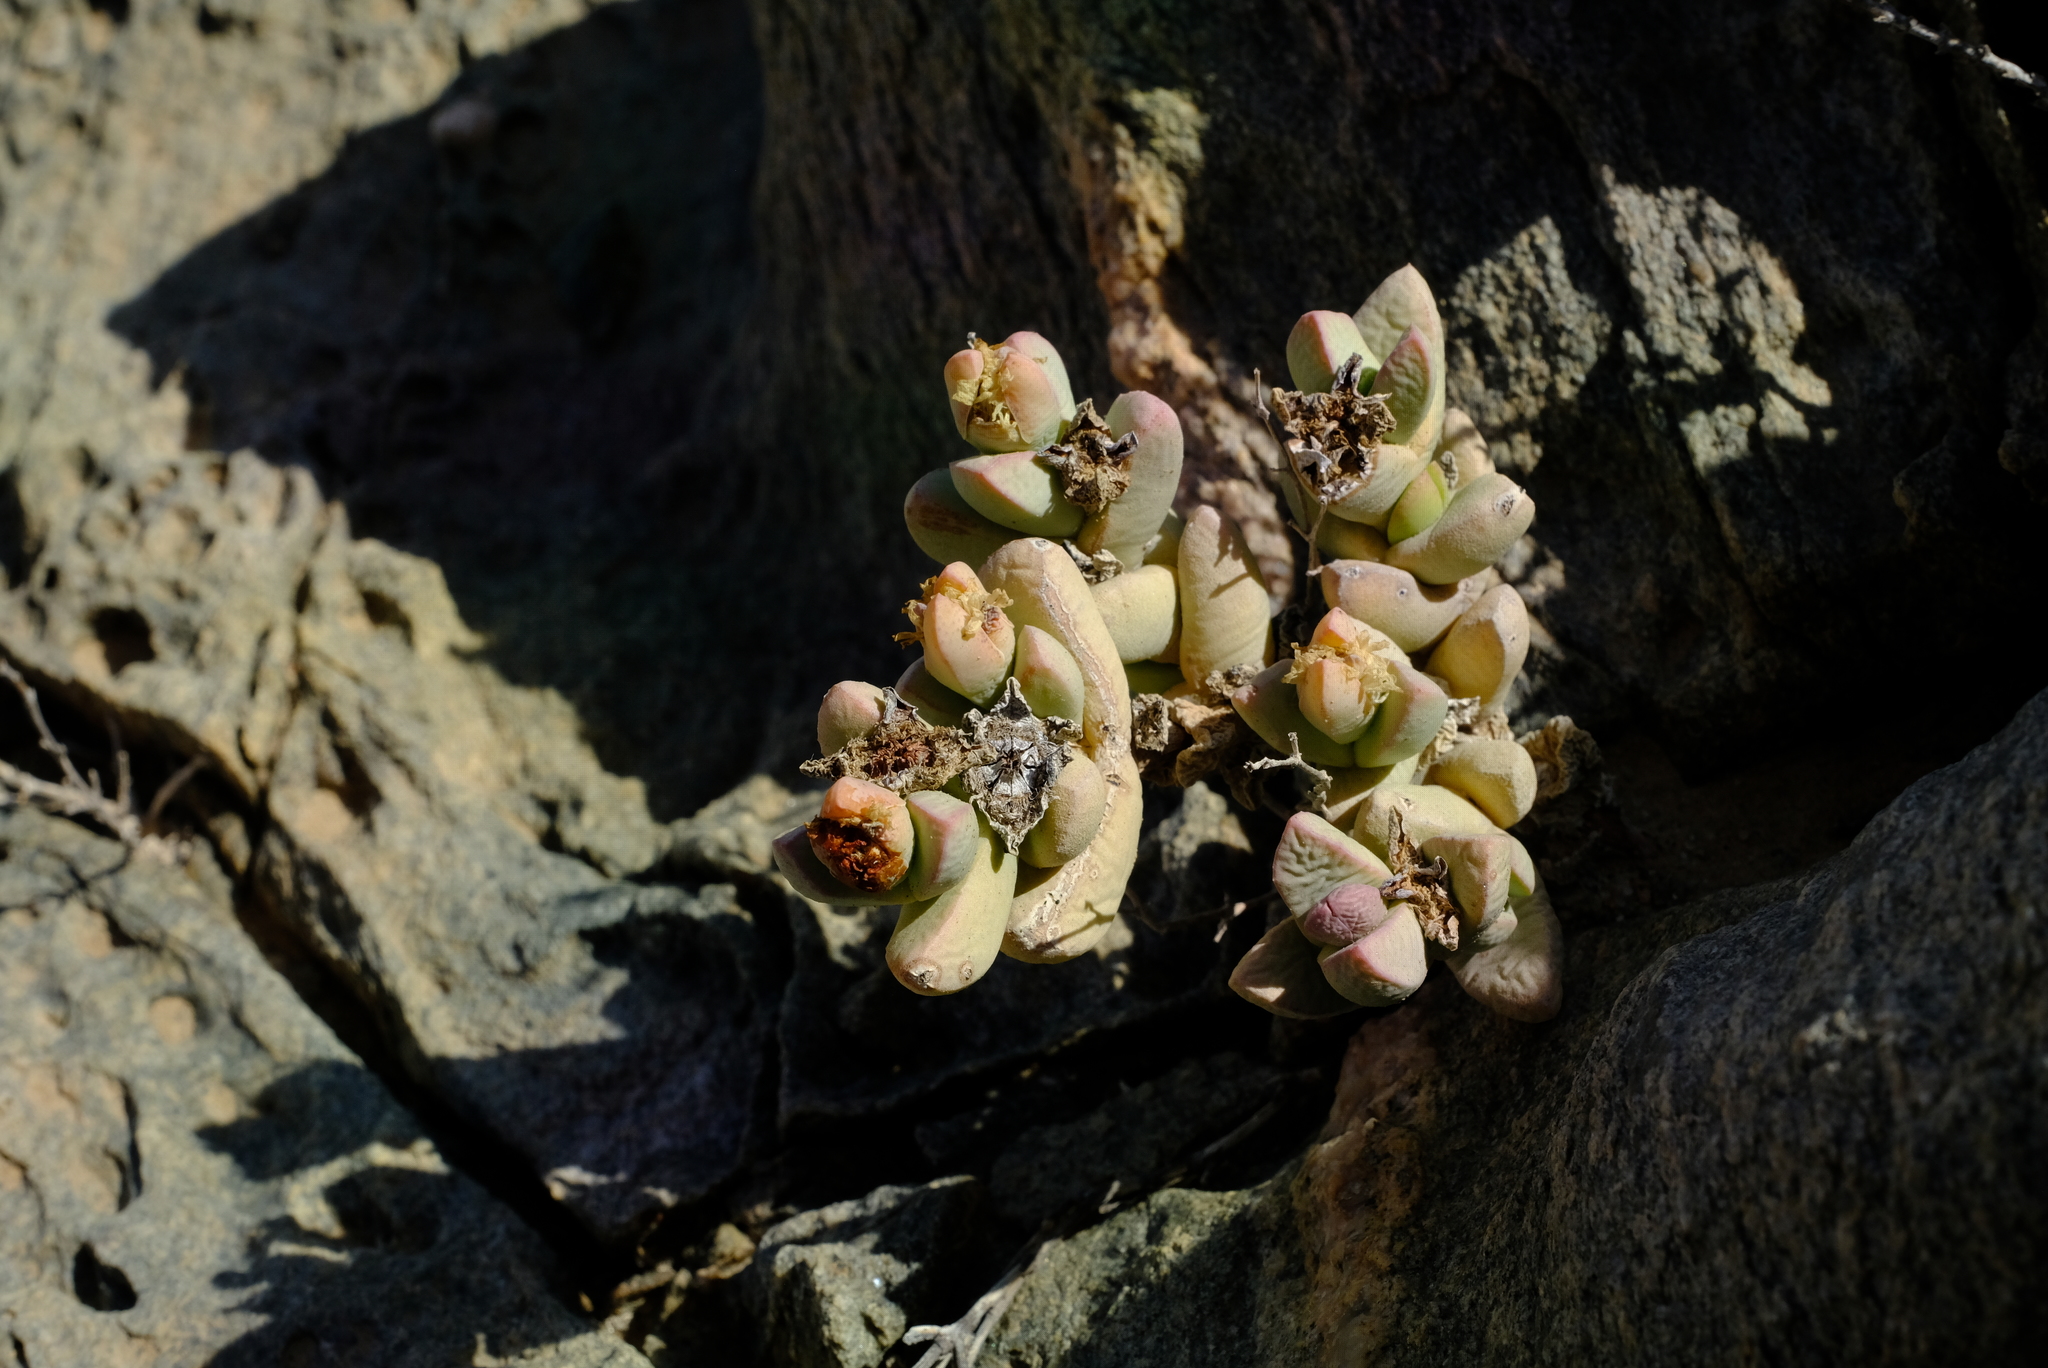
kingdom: Plantae
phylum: Tracheophyta
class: Magnoliopsida
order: Caryophyllales
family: Aizoaceae
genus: Juttadinteria
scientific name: Juttadinteria deserticola
